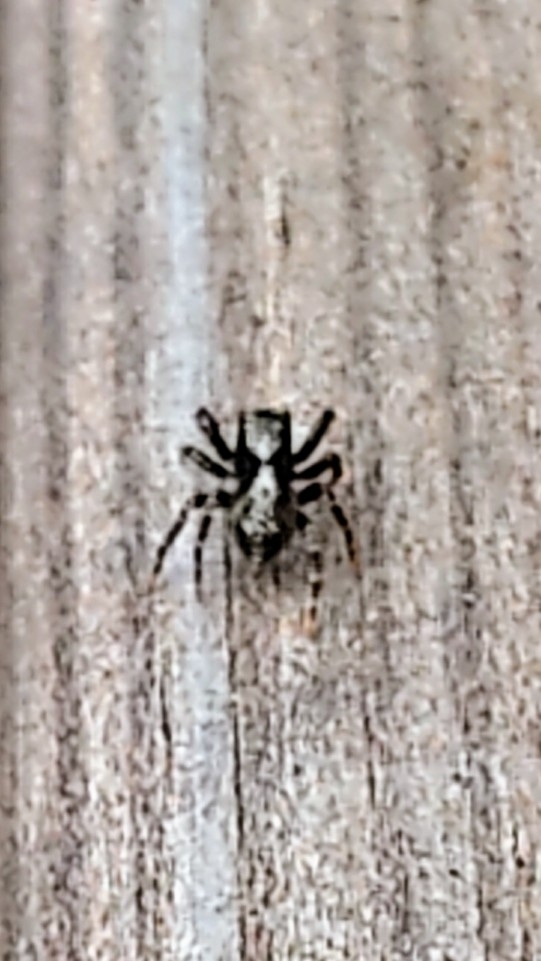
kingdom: Animalia
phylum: Arthropoda
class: Arachnida
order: Araneae
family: Salticidae
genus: Pseudeuophrys
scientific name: Pseudeuophrys lanigera
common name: Jumping spider
